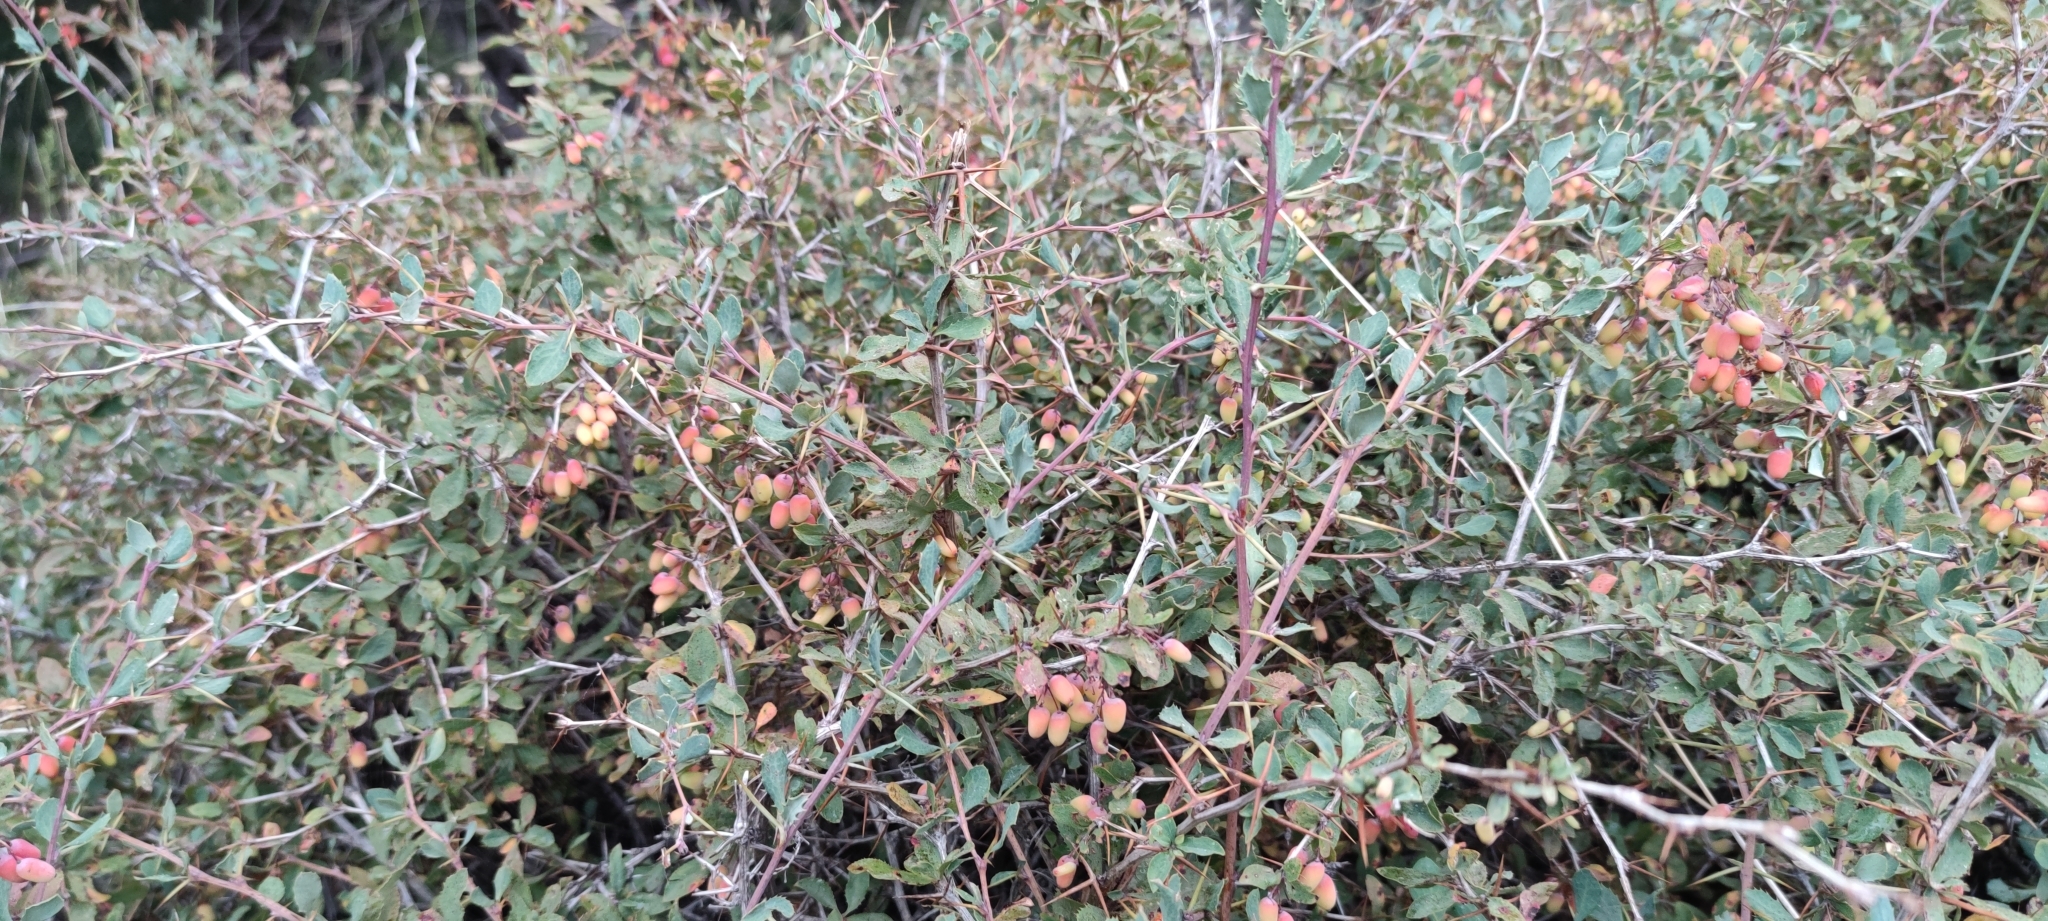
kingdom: Plantae
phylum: Tracheophyta
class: Magnoliopsida
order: Ranunculales
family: Berberidaceae
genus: Berberis
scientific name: Berberis aetnensis
